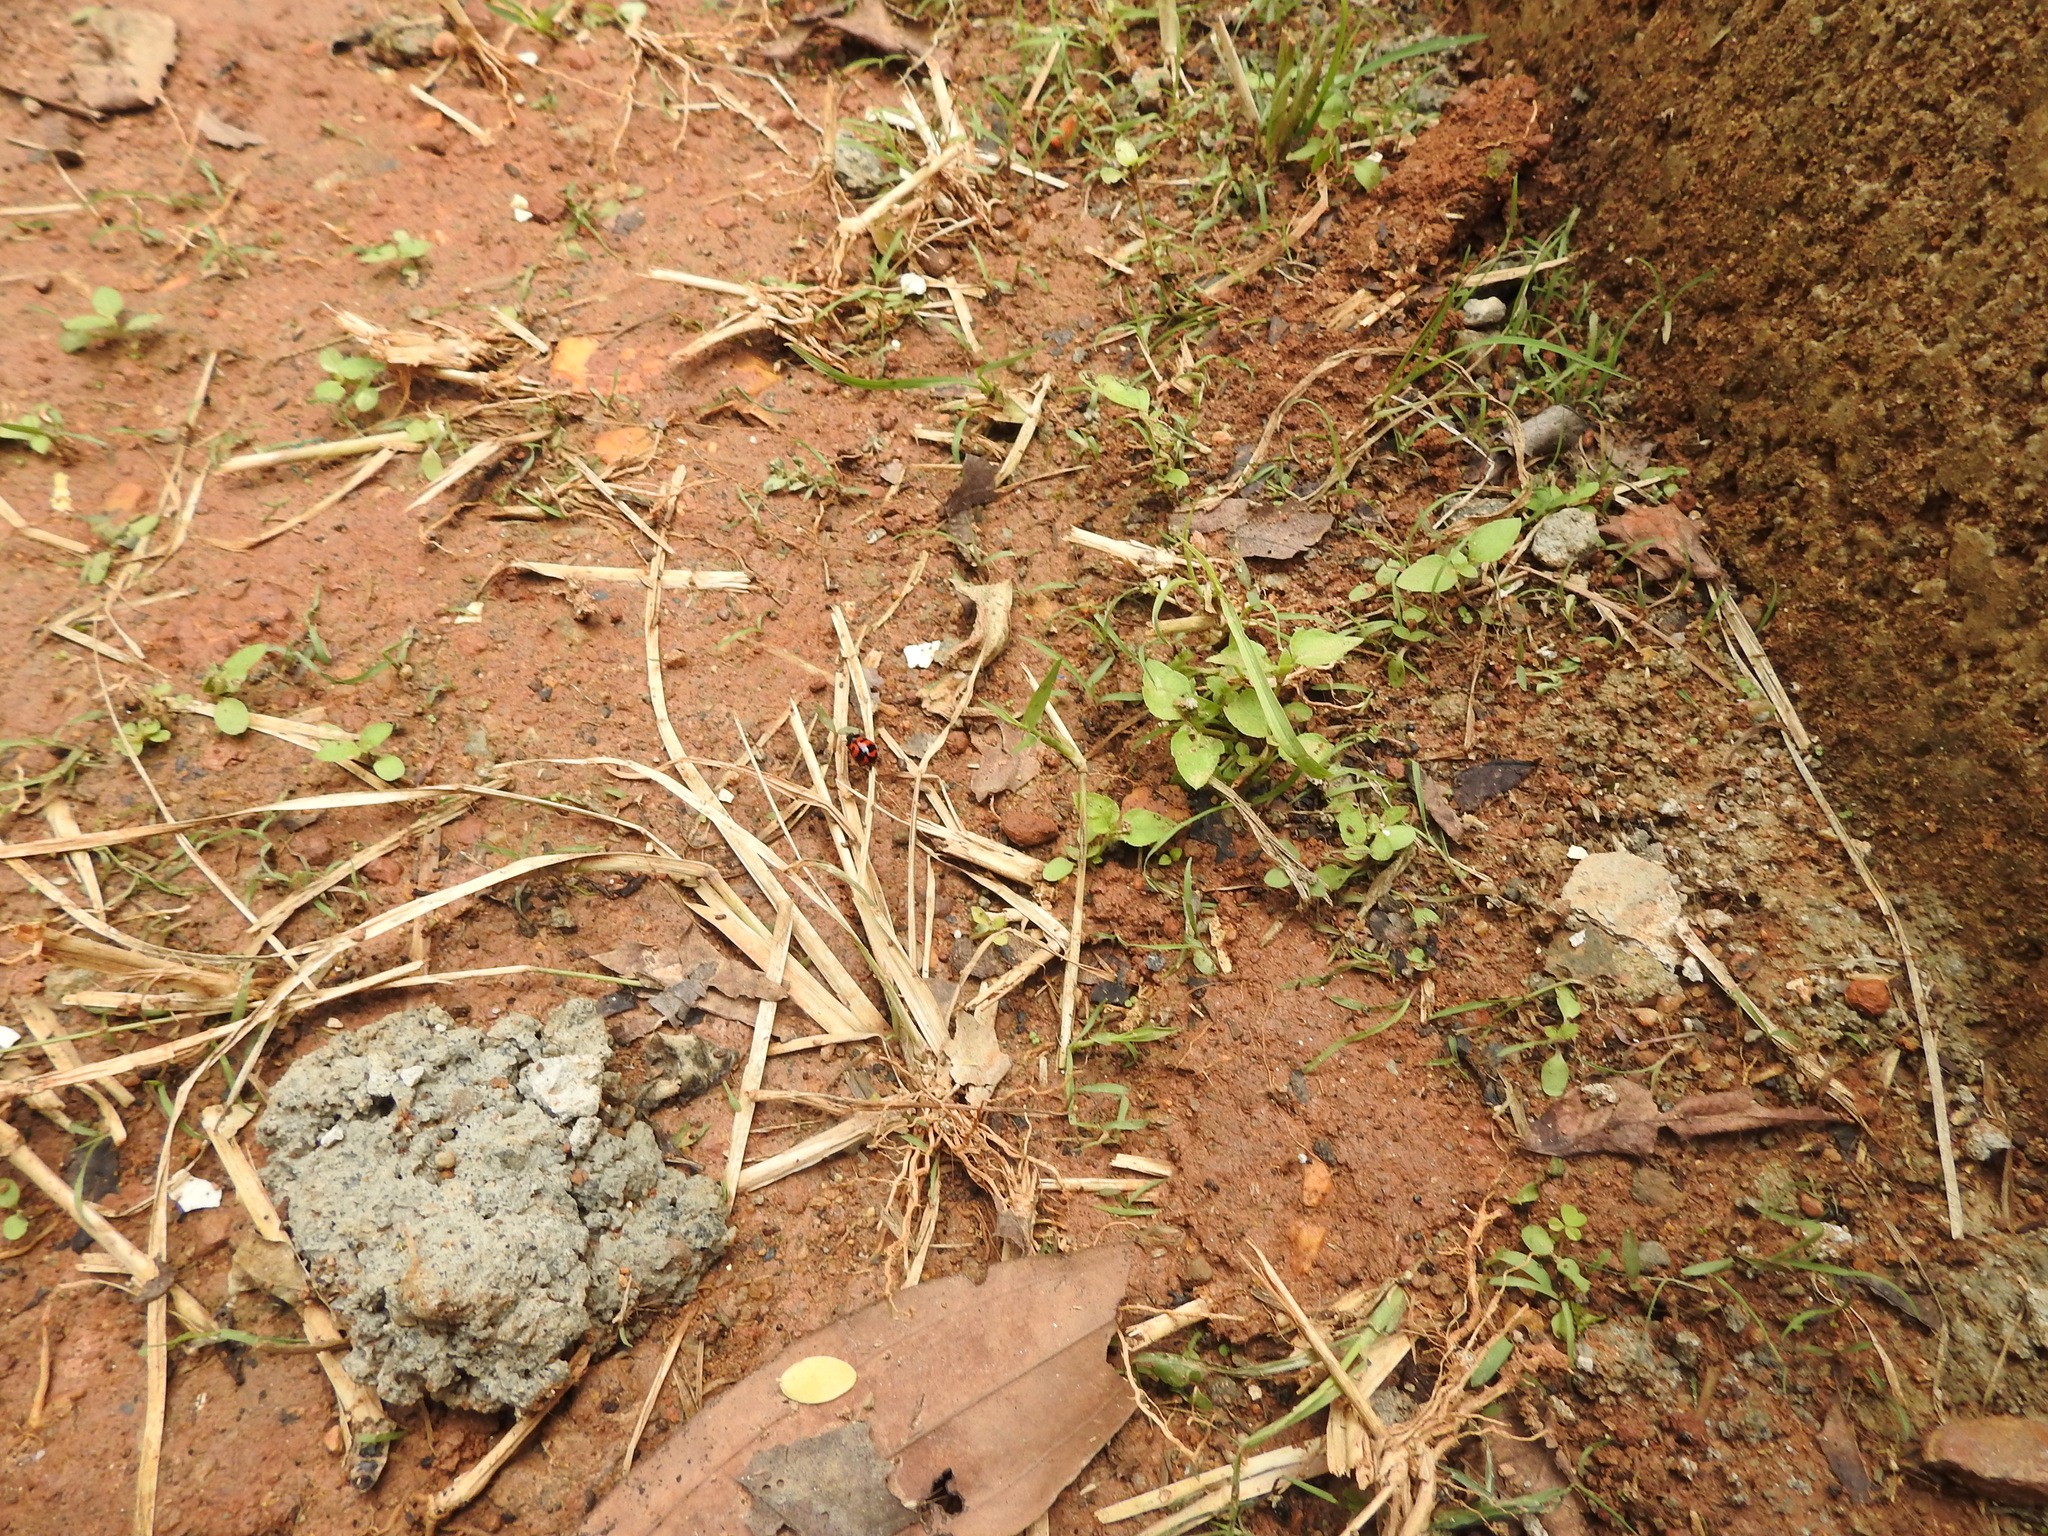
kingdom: Animalia
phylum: Arthropoda
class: Insecta
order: Coleoptera
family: Coccinellidae
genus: Coccinella
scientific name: Coccinella transversalis
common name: Transverse lady beetle
